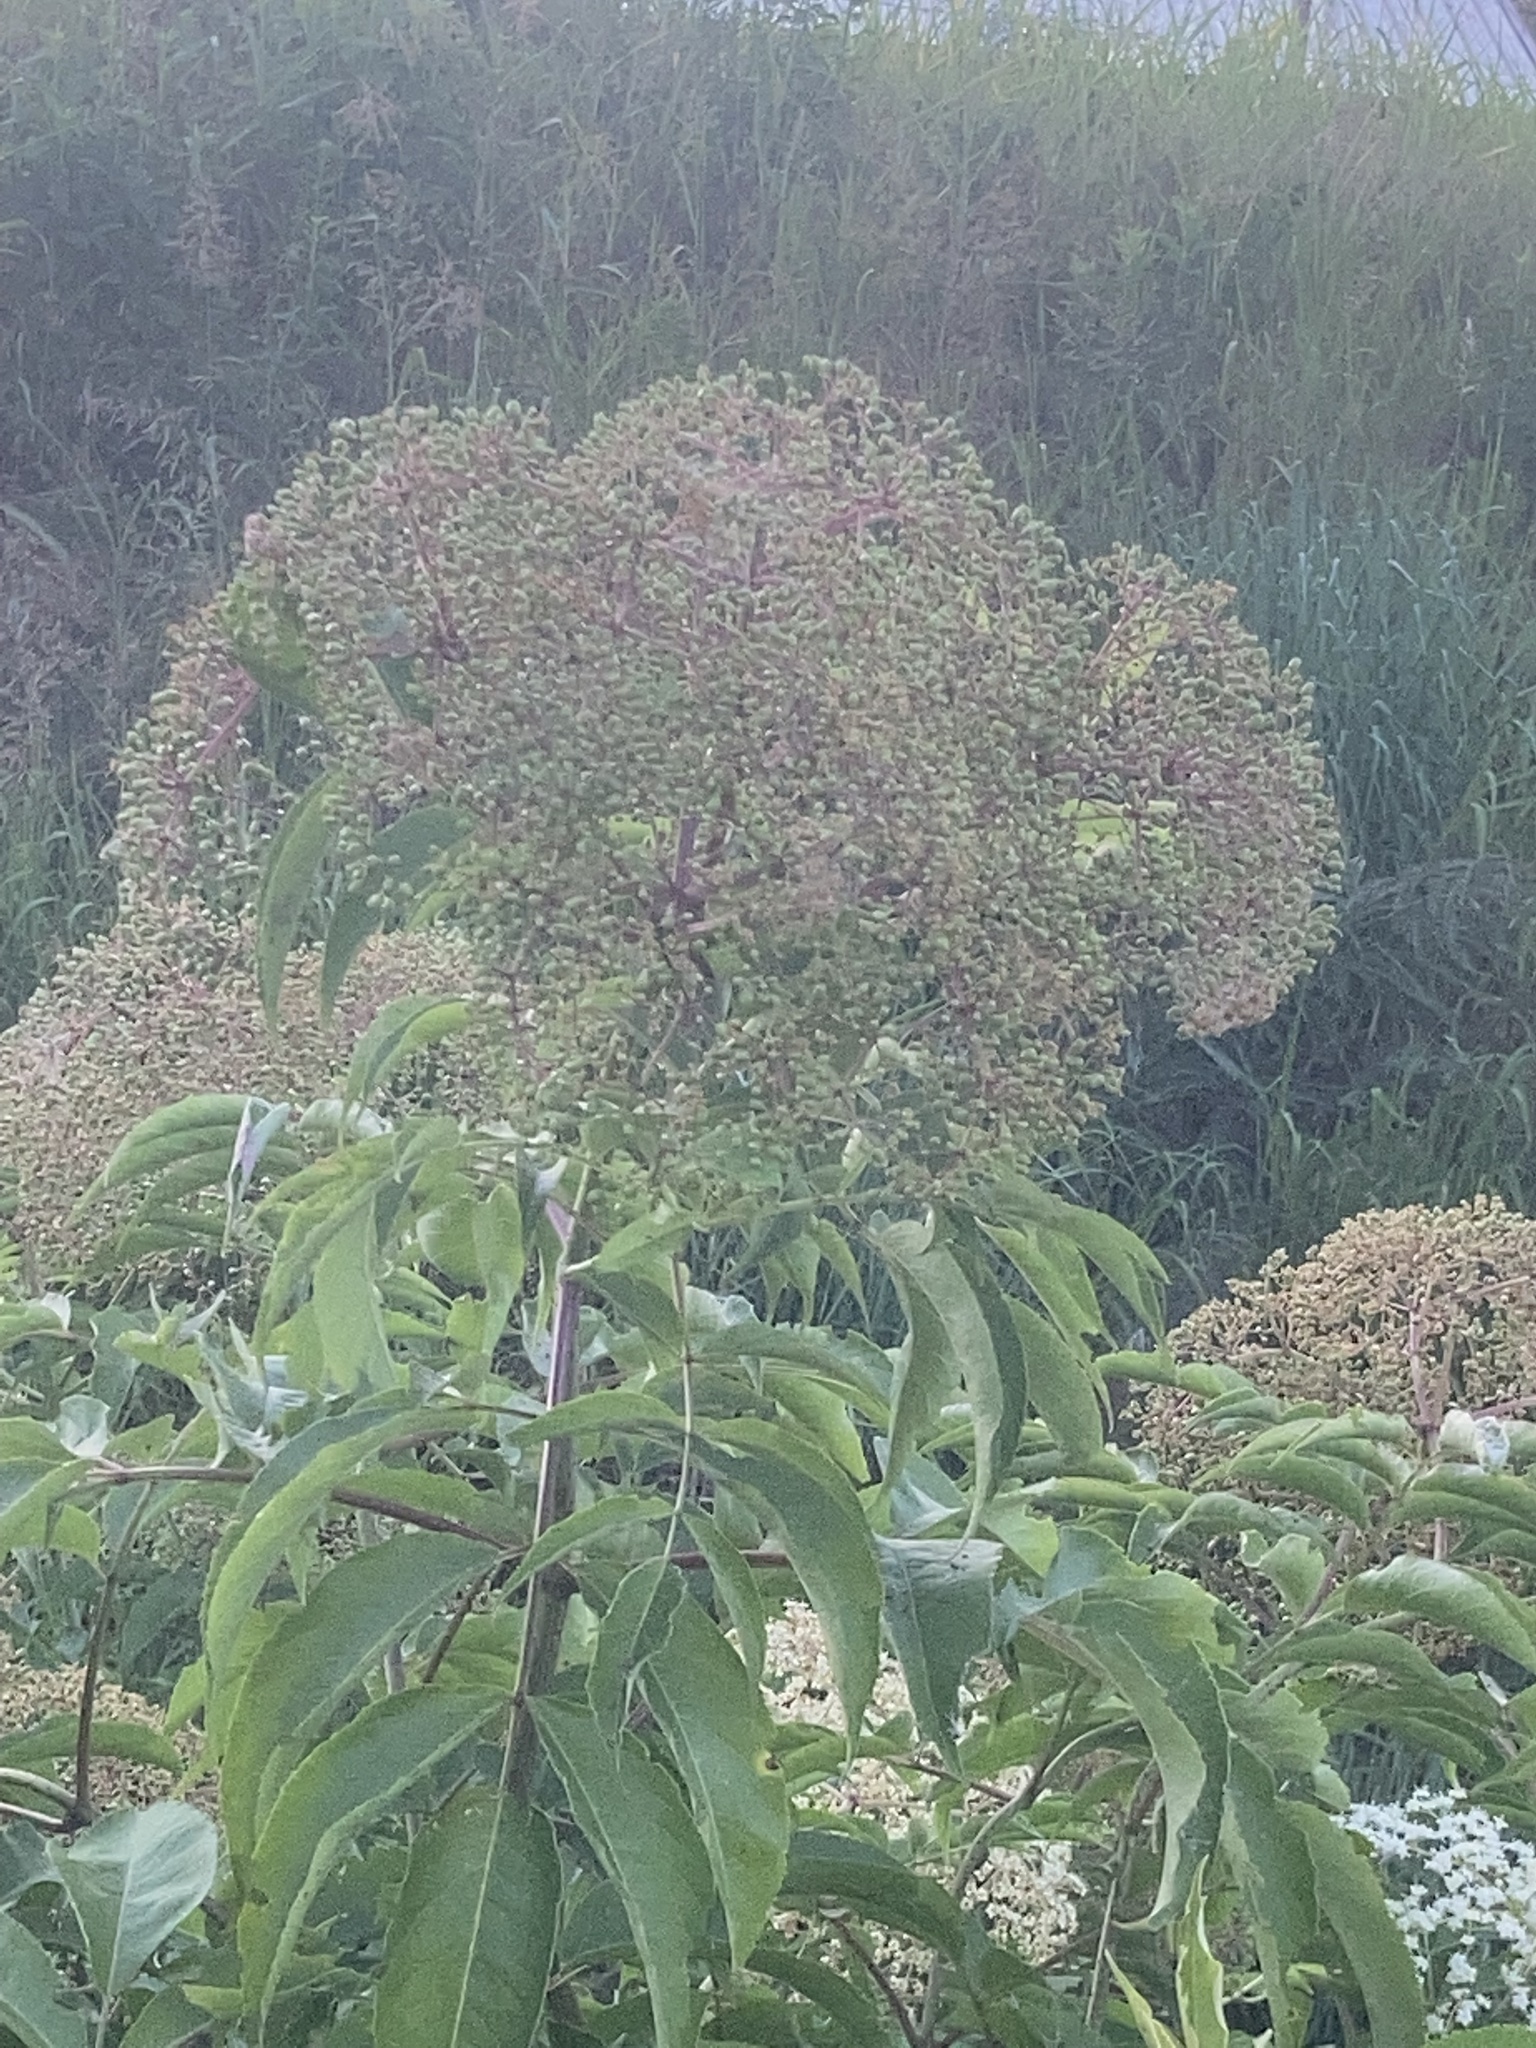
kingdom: Plantae
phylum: Tracheophyta
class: Magnoliopsida
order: Dipsacales
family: Viburnaceae
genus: Sambucus
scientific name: Sambucus canadensis
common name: American elder
